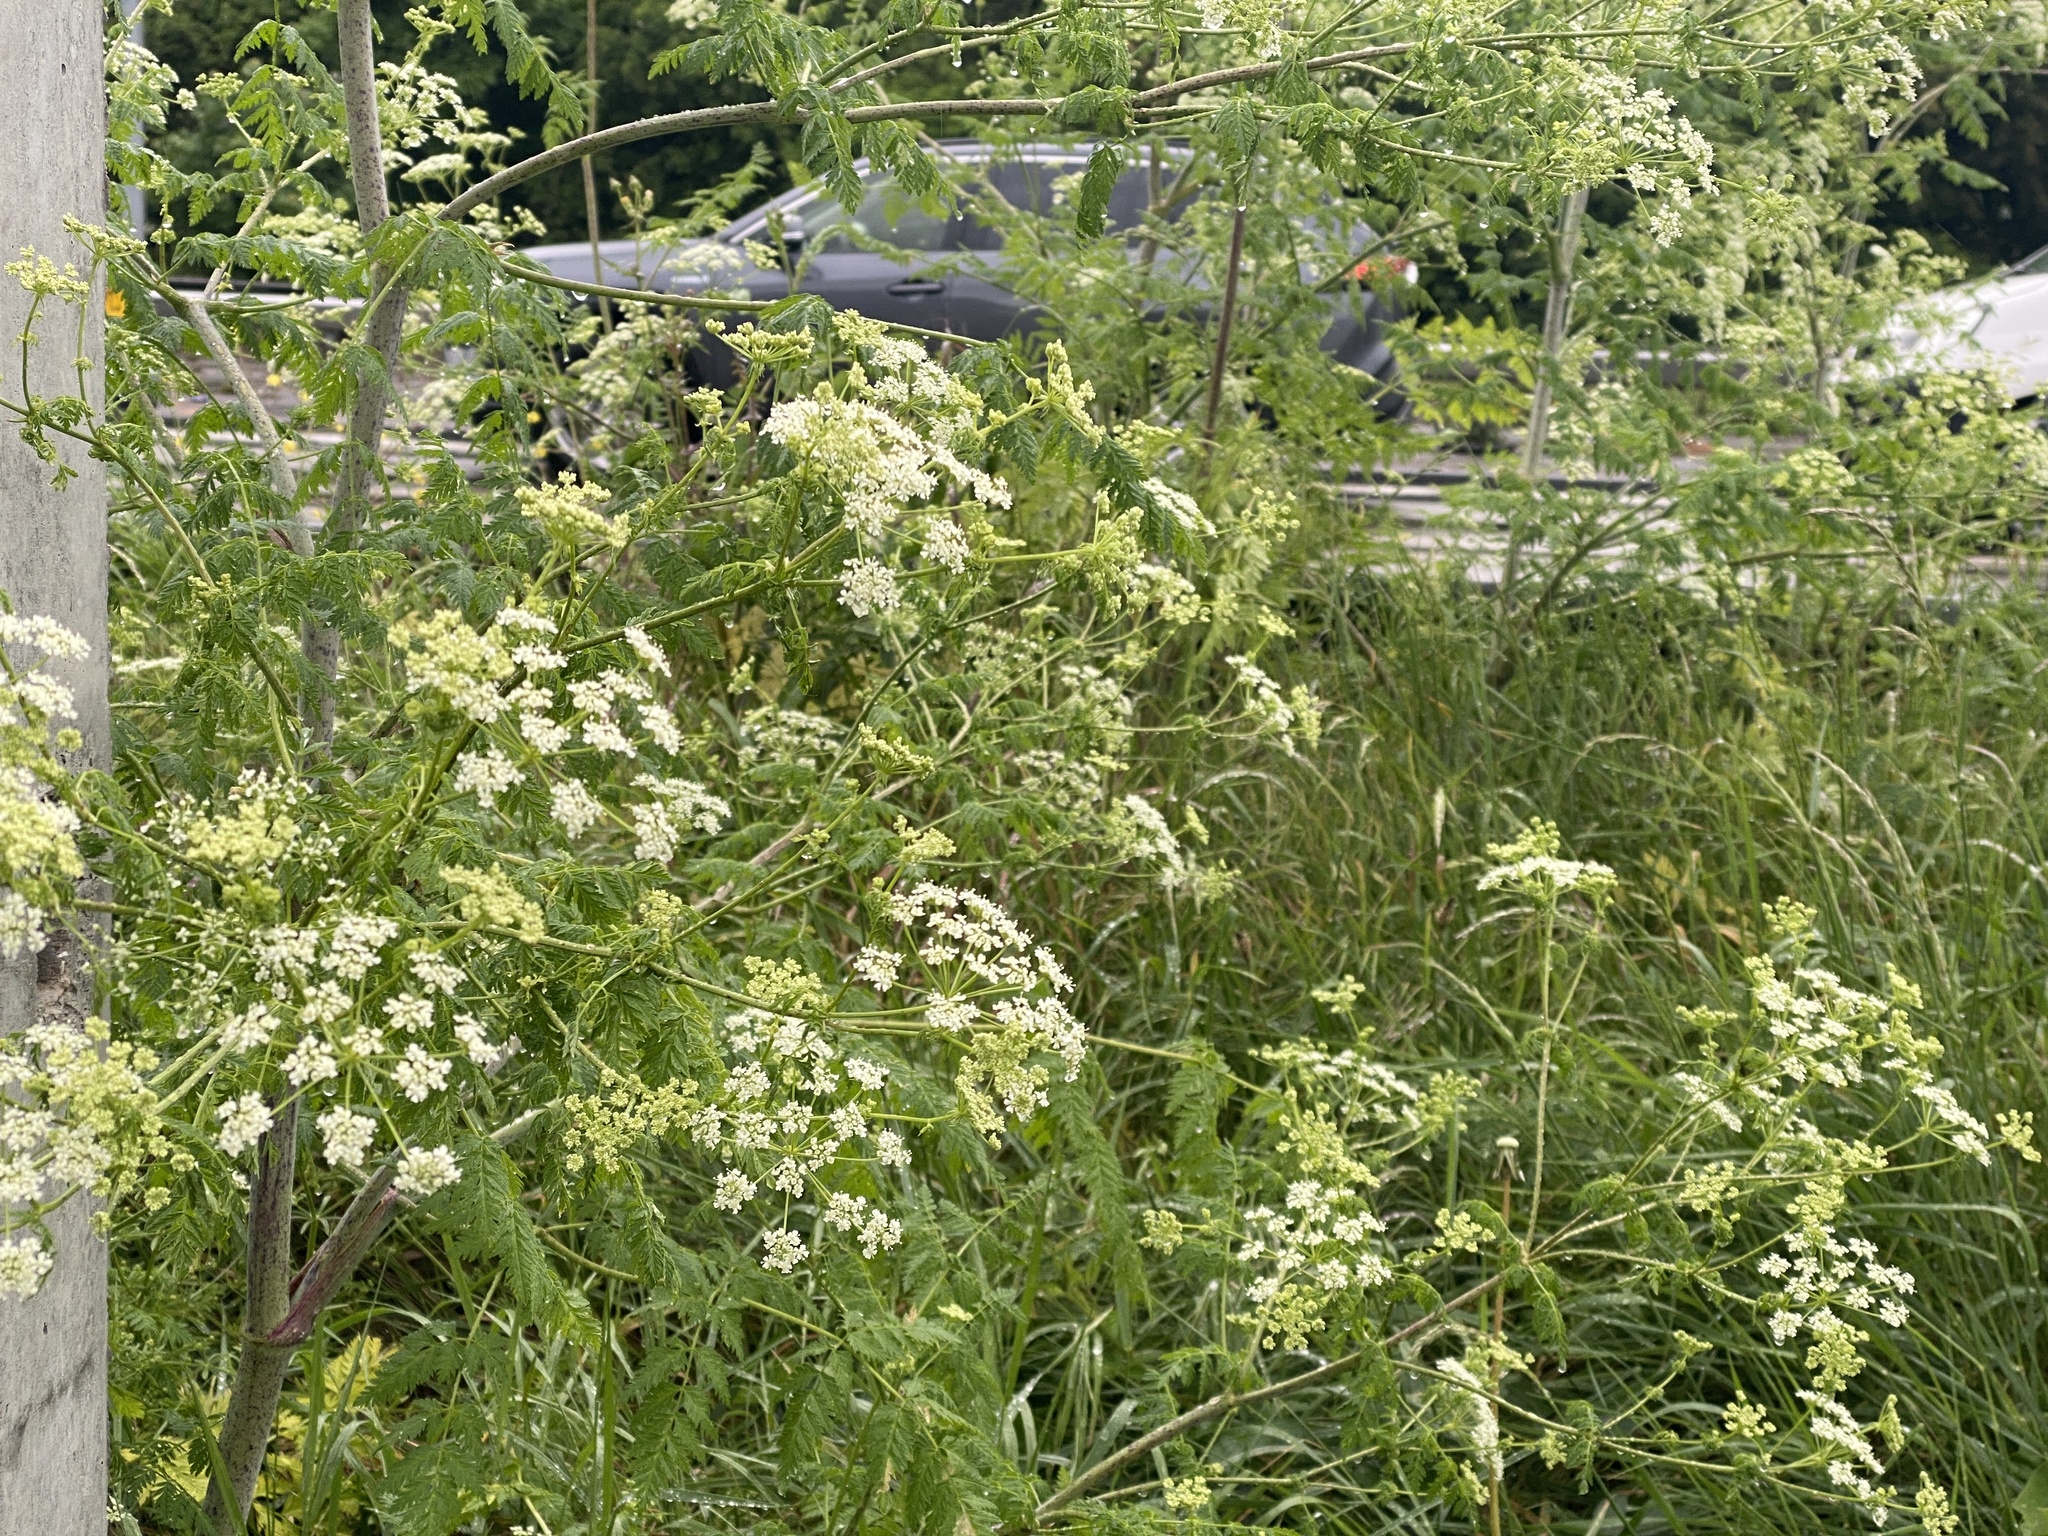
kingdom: Plantae
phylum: Tracheophyta
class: Magnoliopsida
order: Apiales
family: Apiaceae
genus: Conium
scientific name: Conium maculatum
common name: Hemlock
